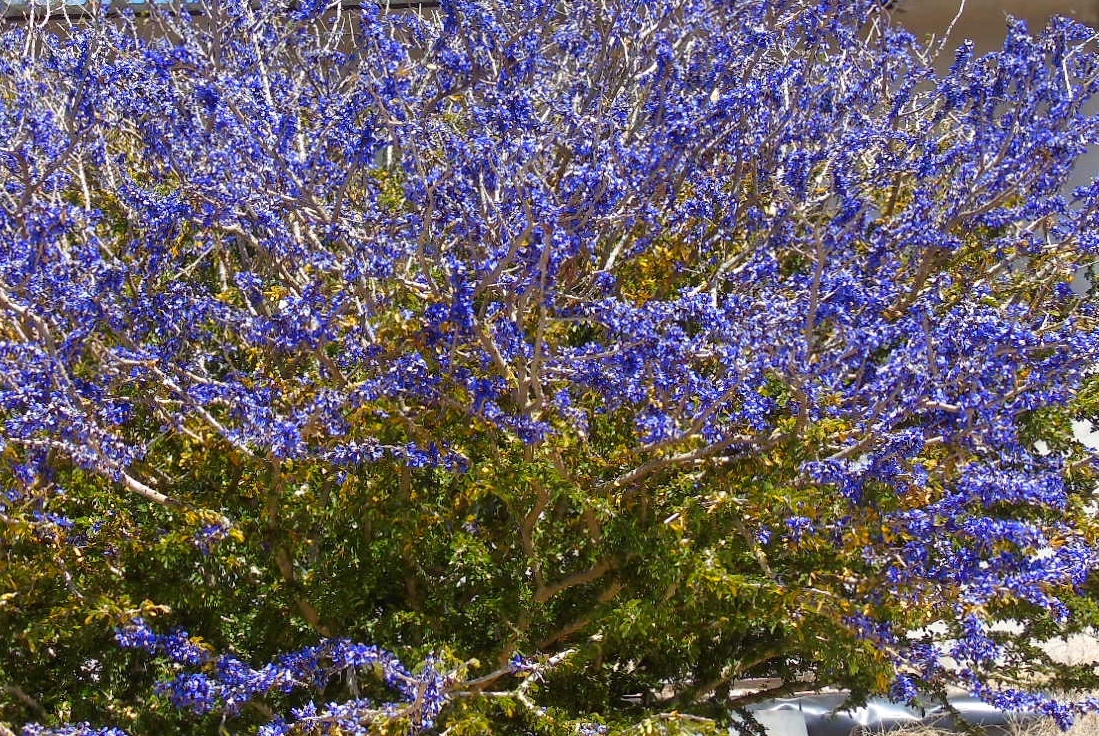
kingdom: Plantae
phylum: Tracheophyta
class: Magnoliopsida
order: Zygophyllales
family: Zygophyllaceae
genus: Guaiacum
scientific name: Guaiacum coulteri
